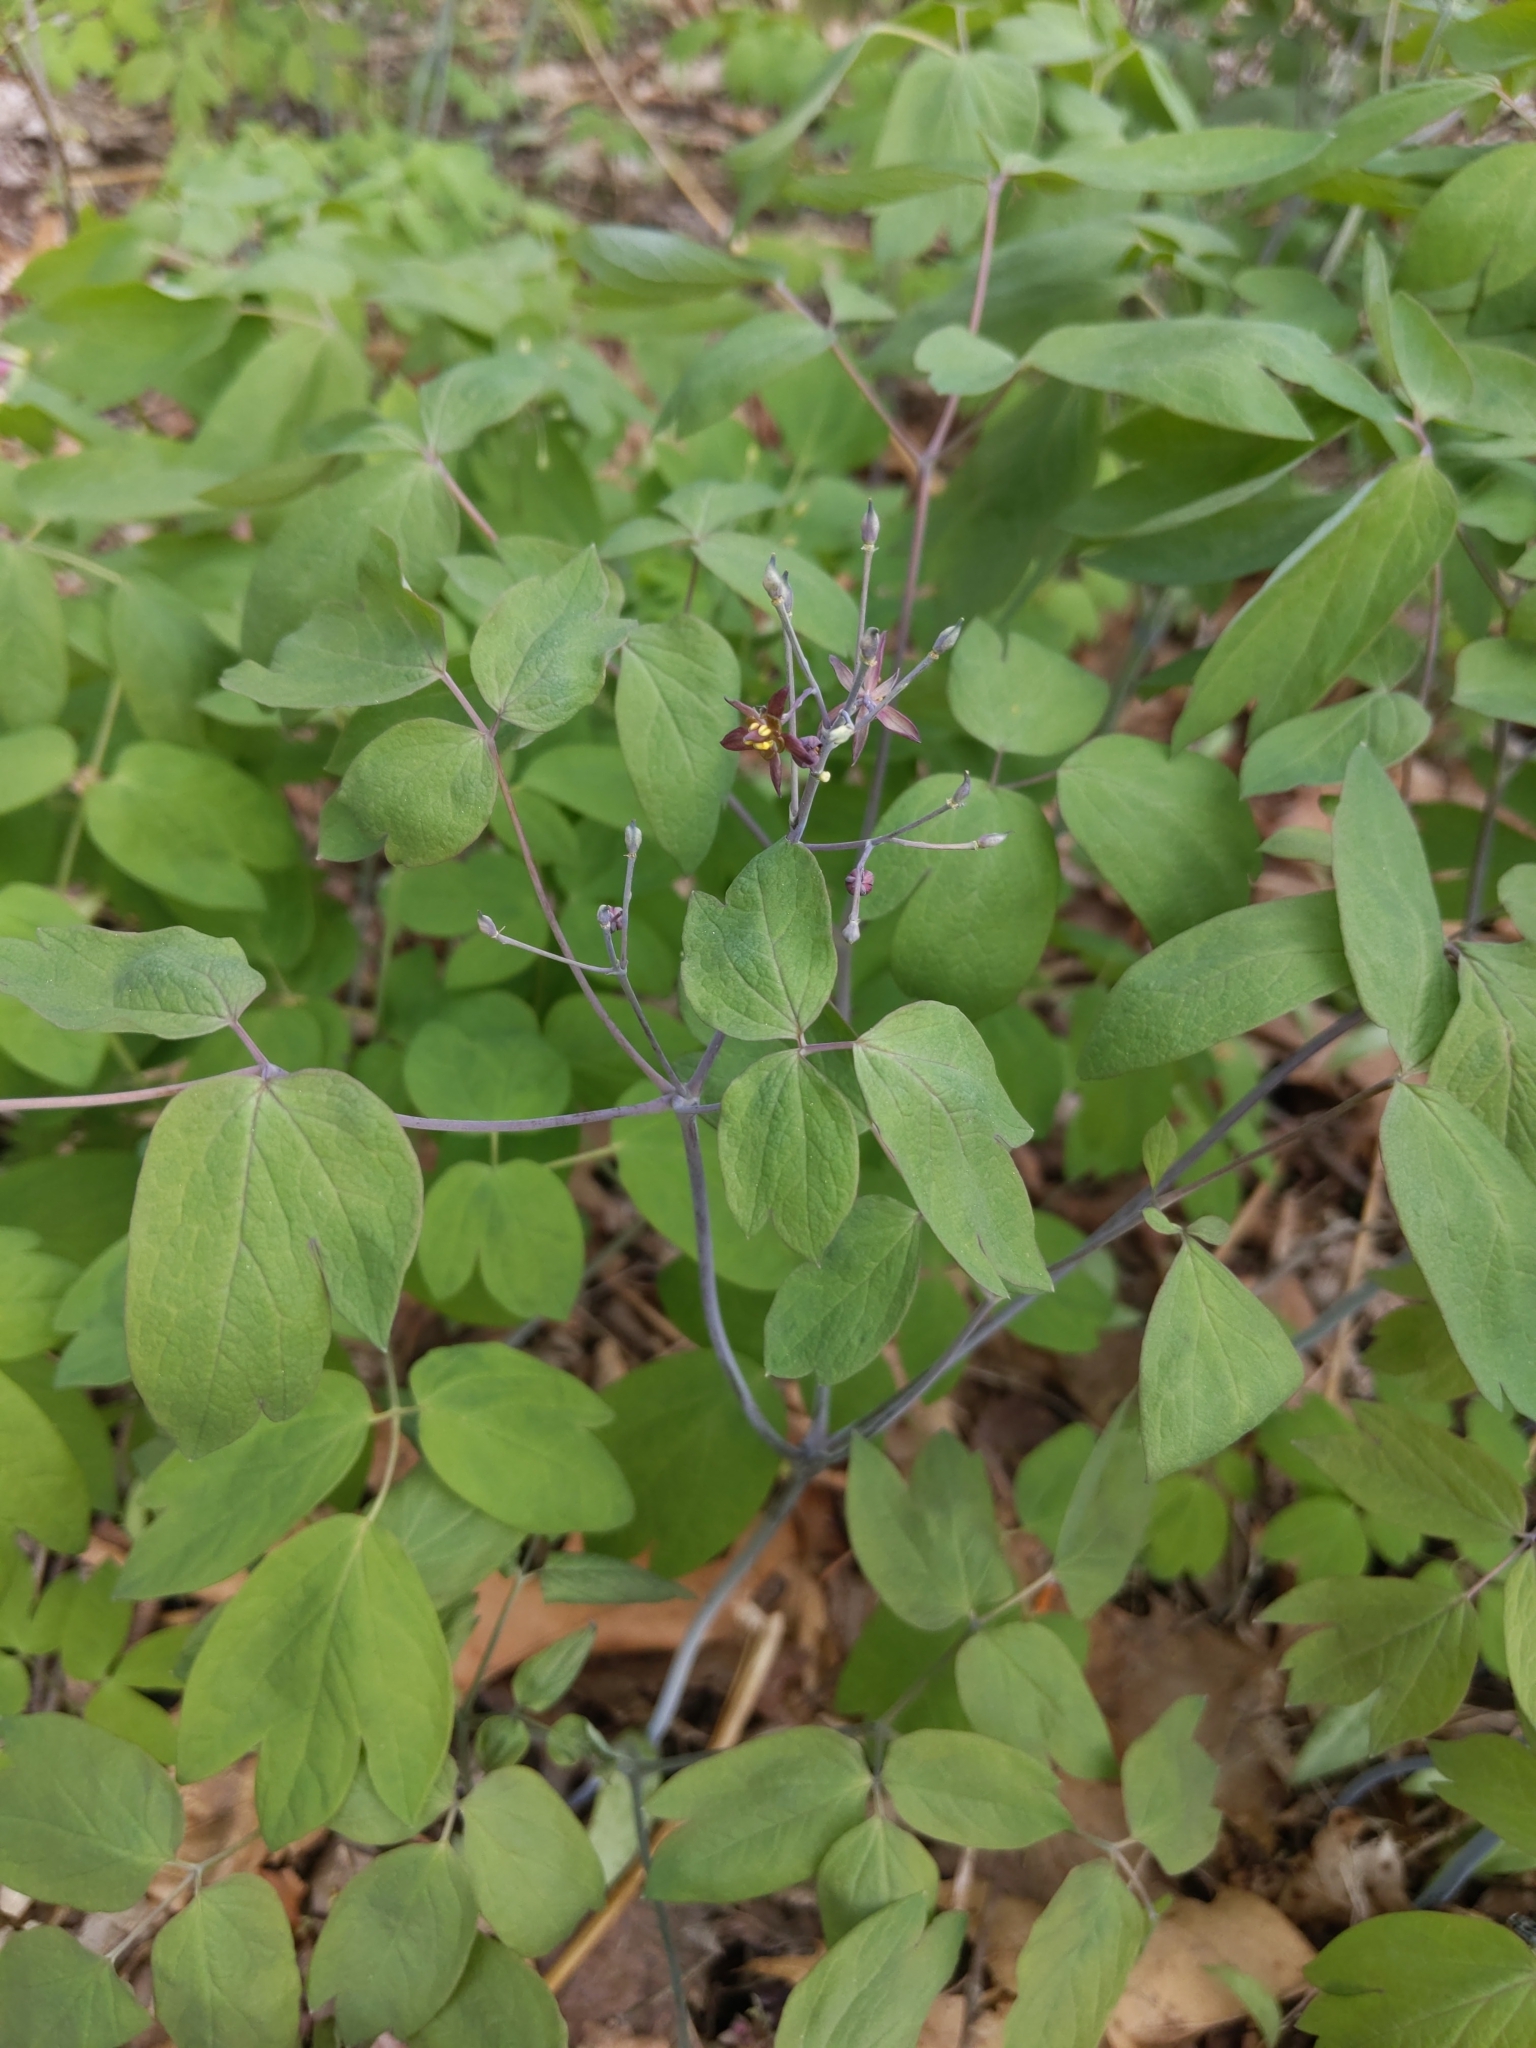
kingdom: Plantae
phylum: Tracheophyta
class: Magnoliopsida
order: Ranunculales
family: Berberidaceae
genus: Caulophyllum
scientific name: Caulophyllum giganteum
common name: Blue cohosh
